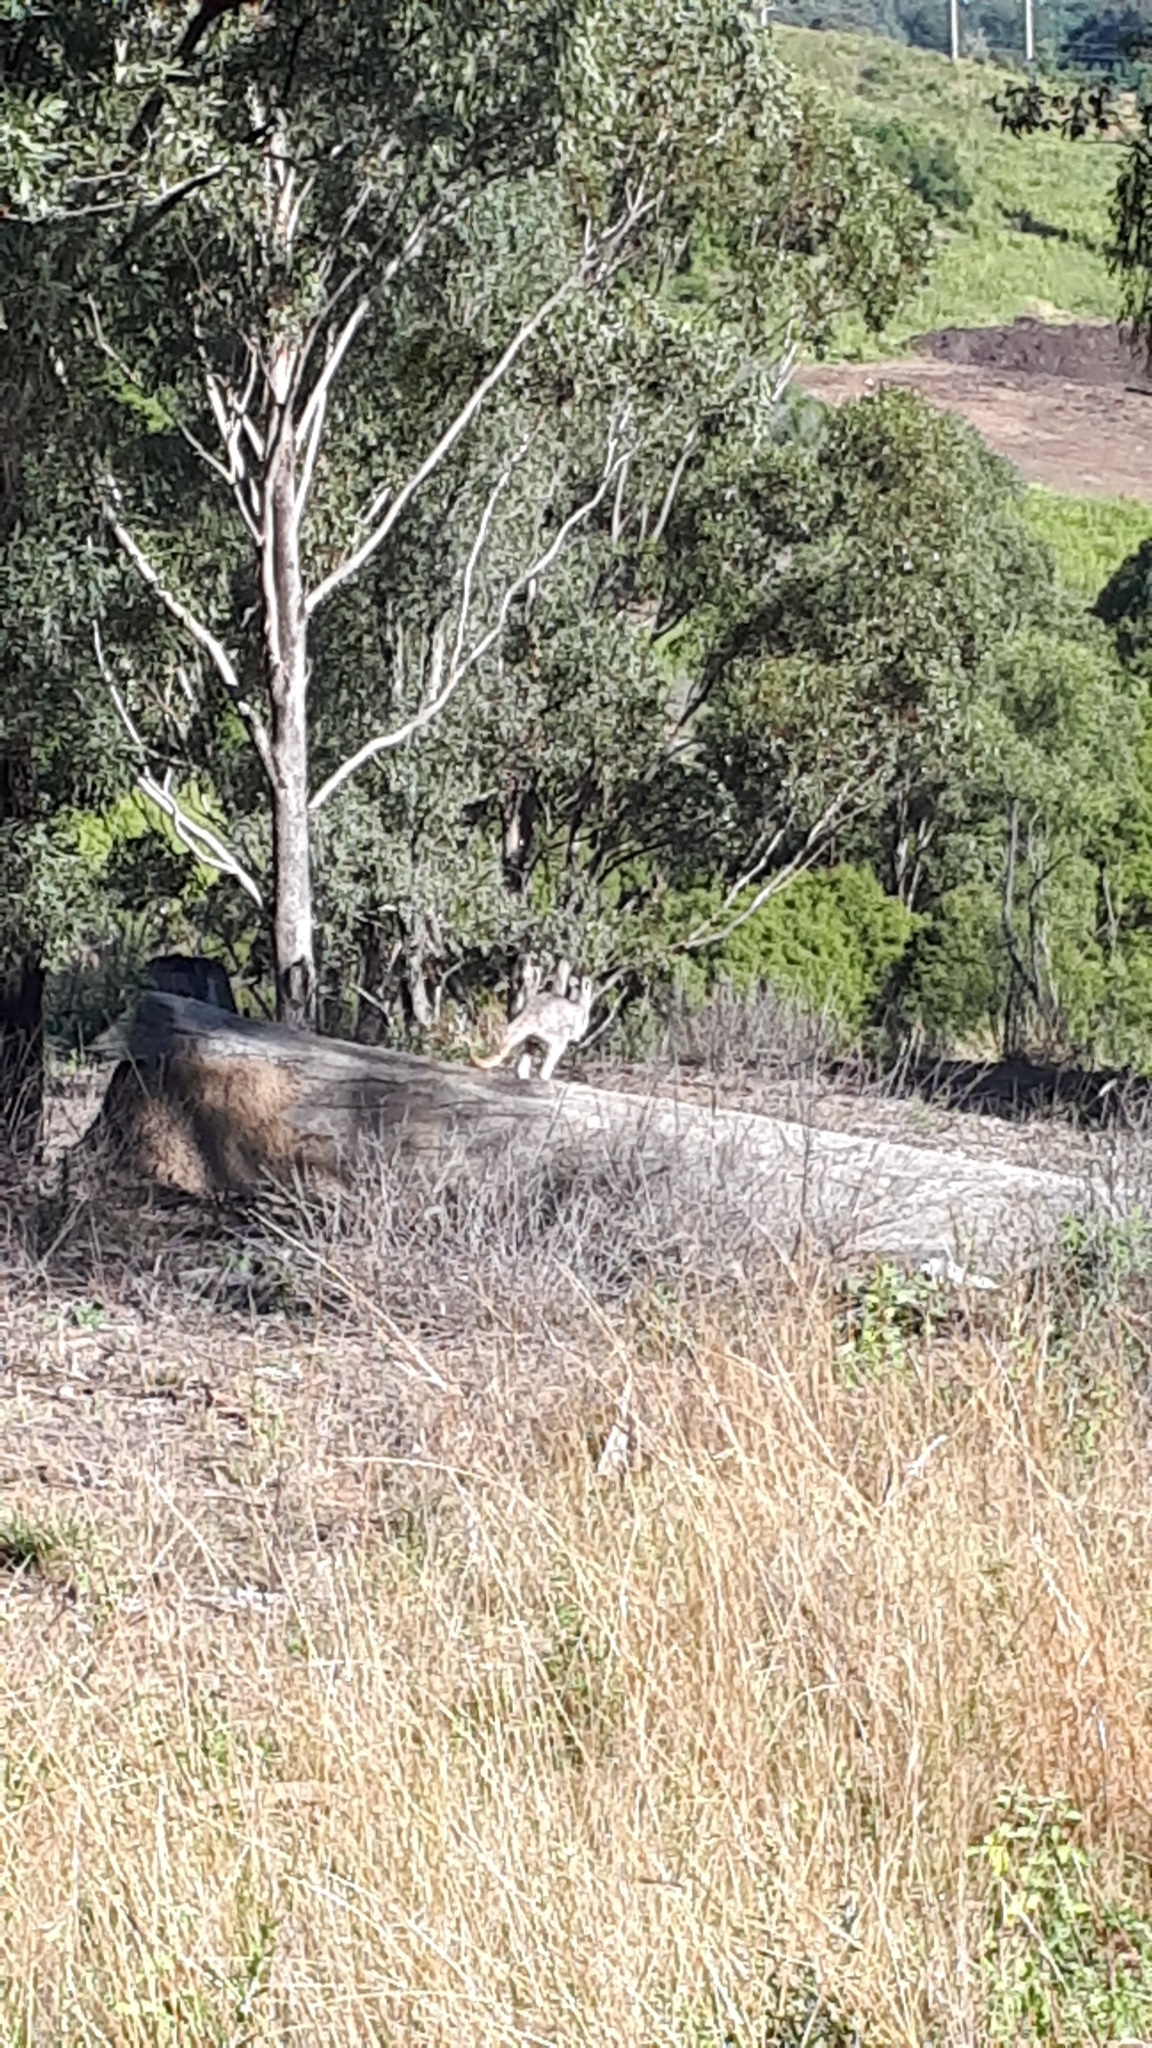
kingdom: Animalia
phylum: Chordata
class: Mammalia
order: Diprotodontia
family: Macropodidae
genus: Macropus
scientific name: Macropus robustus
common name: Eastern wallaroo
